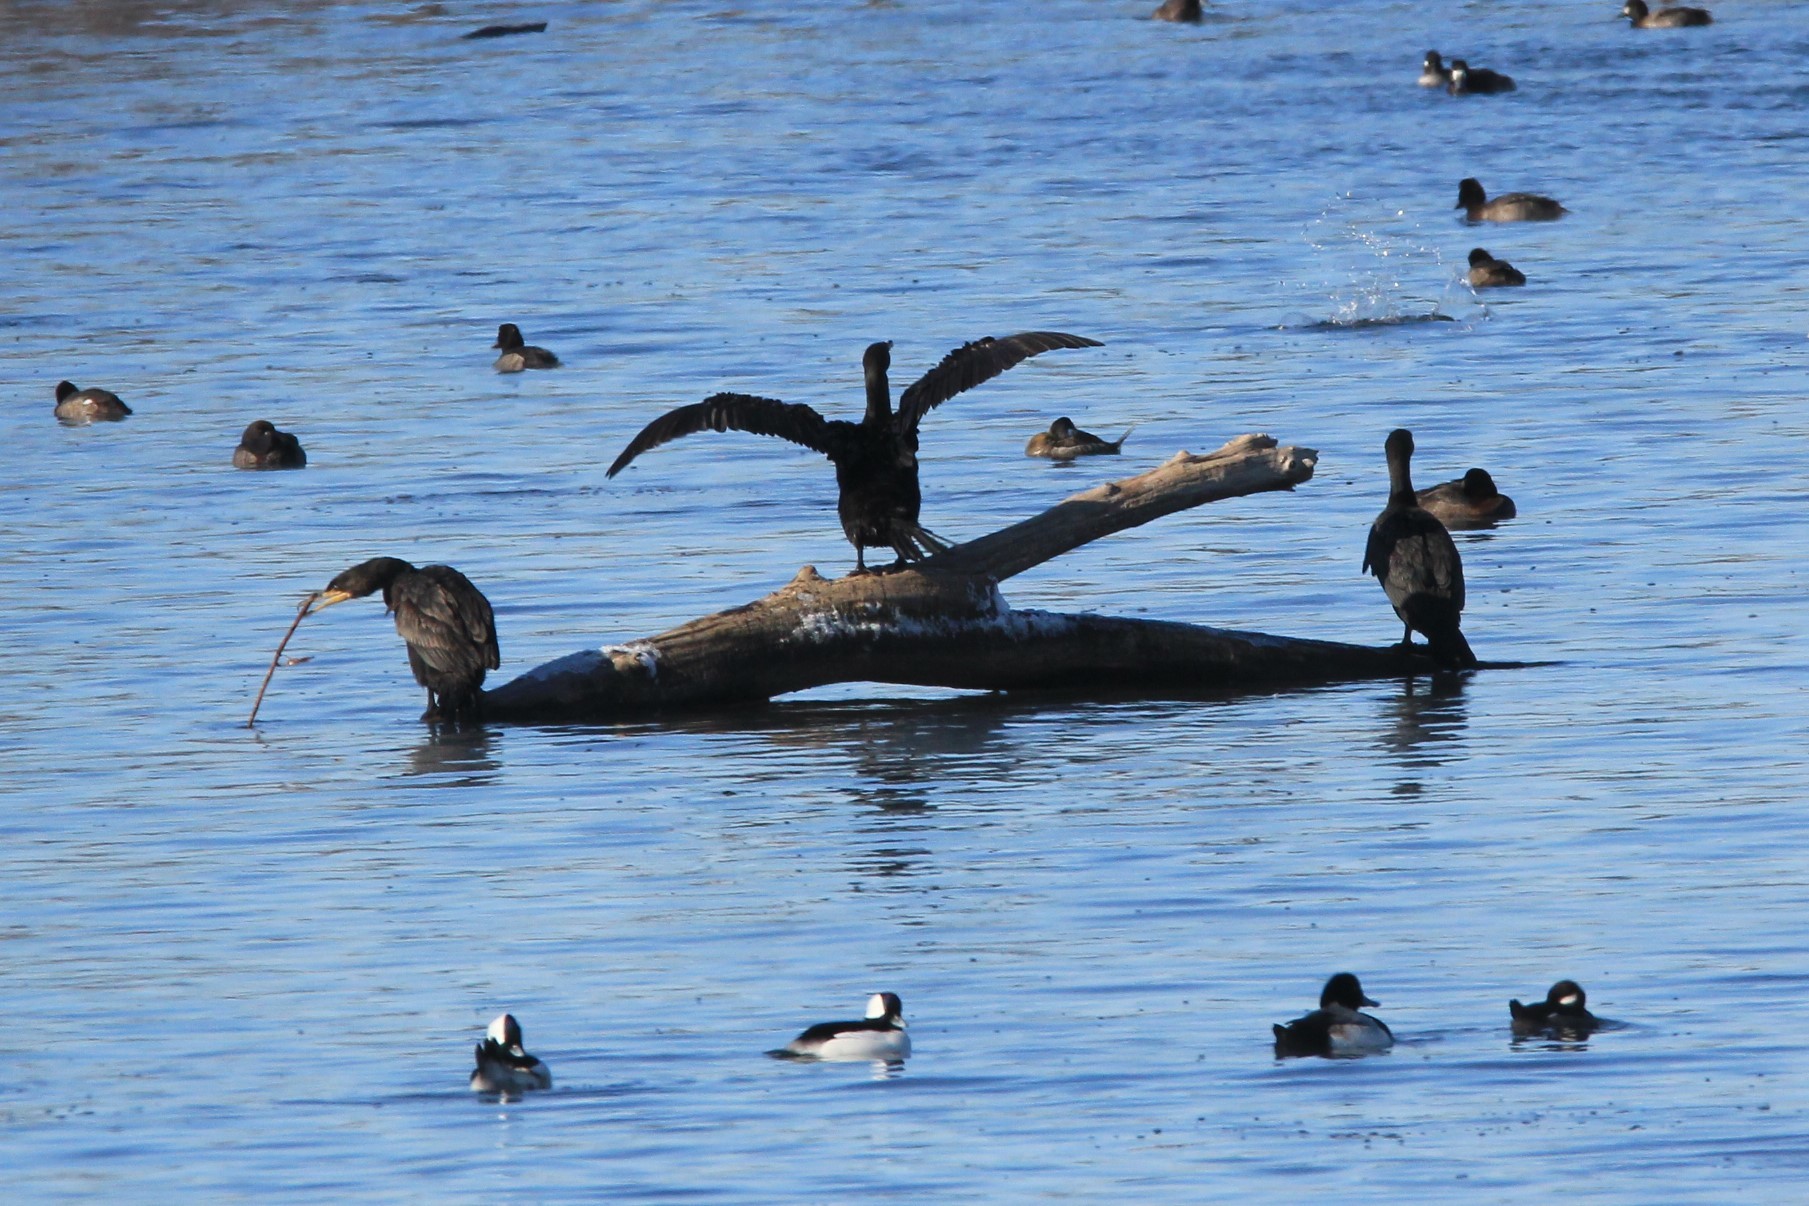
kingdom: Animalia
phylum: Chordata
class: Aves
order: Suliformes
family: Phalacrocoracidae
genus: Phalacrocorax
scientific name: Phalacrocorax auritus
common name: Double-crested cormorant
